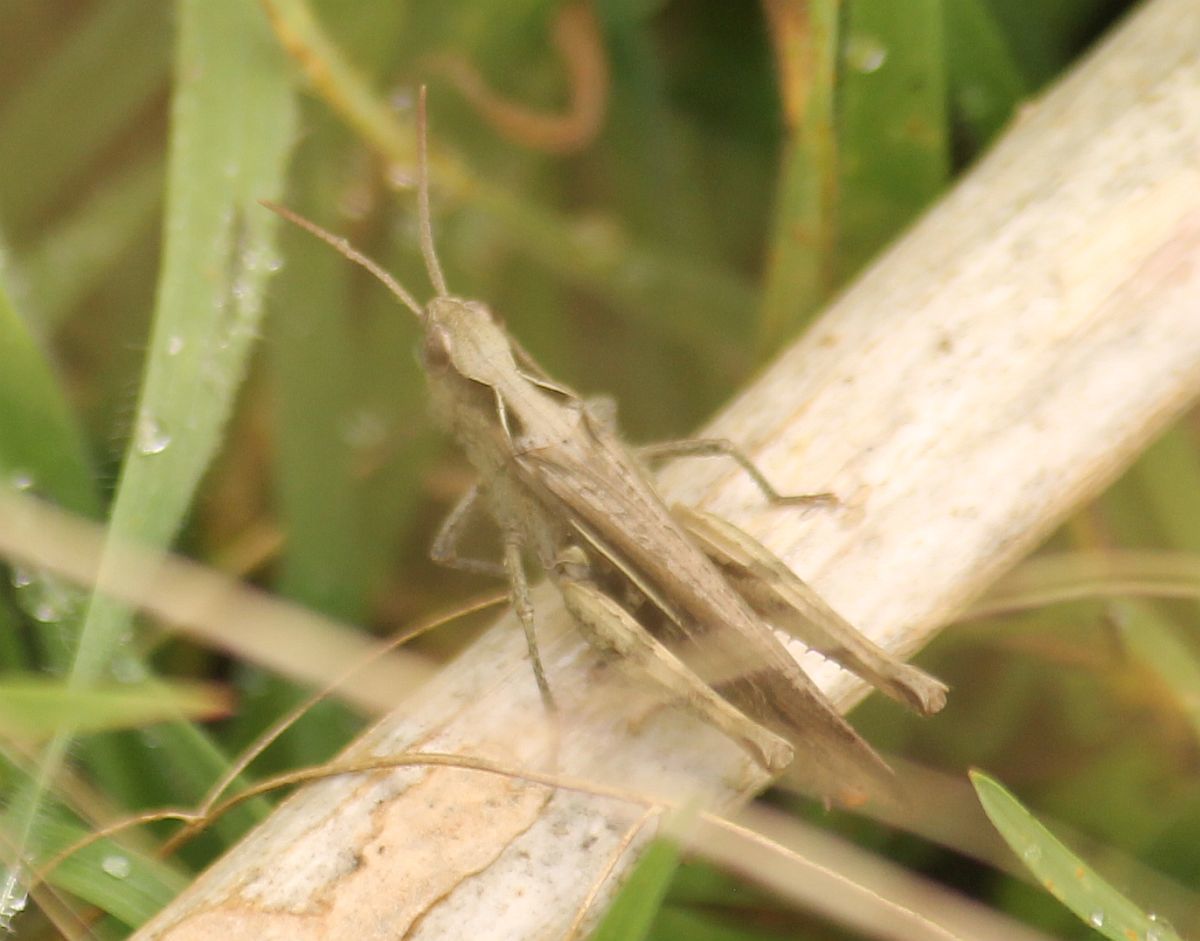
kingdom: Animalia
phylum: Arthropoda
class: Insecta
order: Orthoptera
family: Acrididae
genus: Chorthippus
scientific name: Chorthippus brunneus
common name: Field grasshopper
